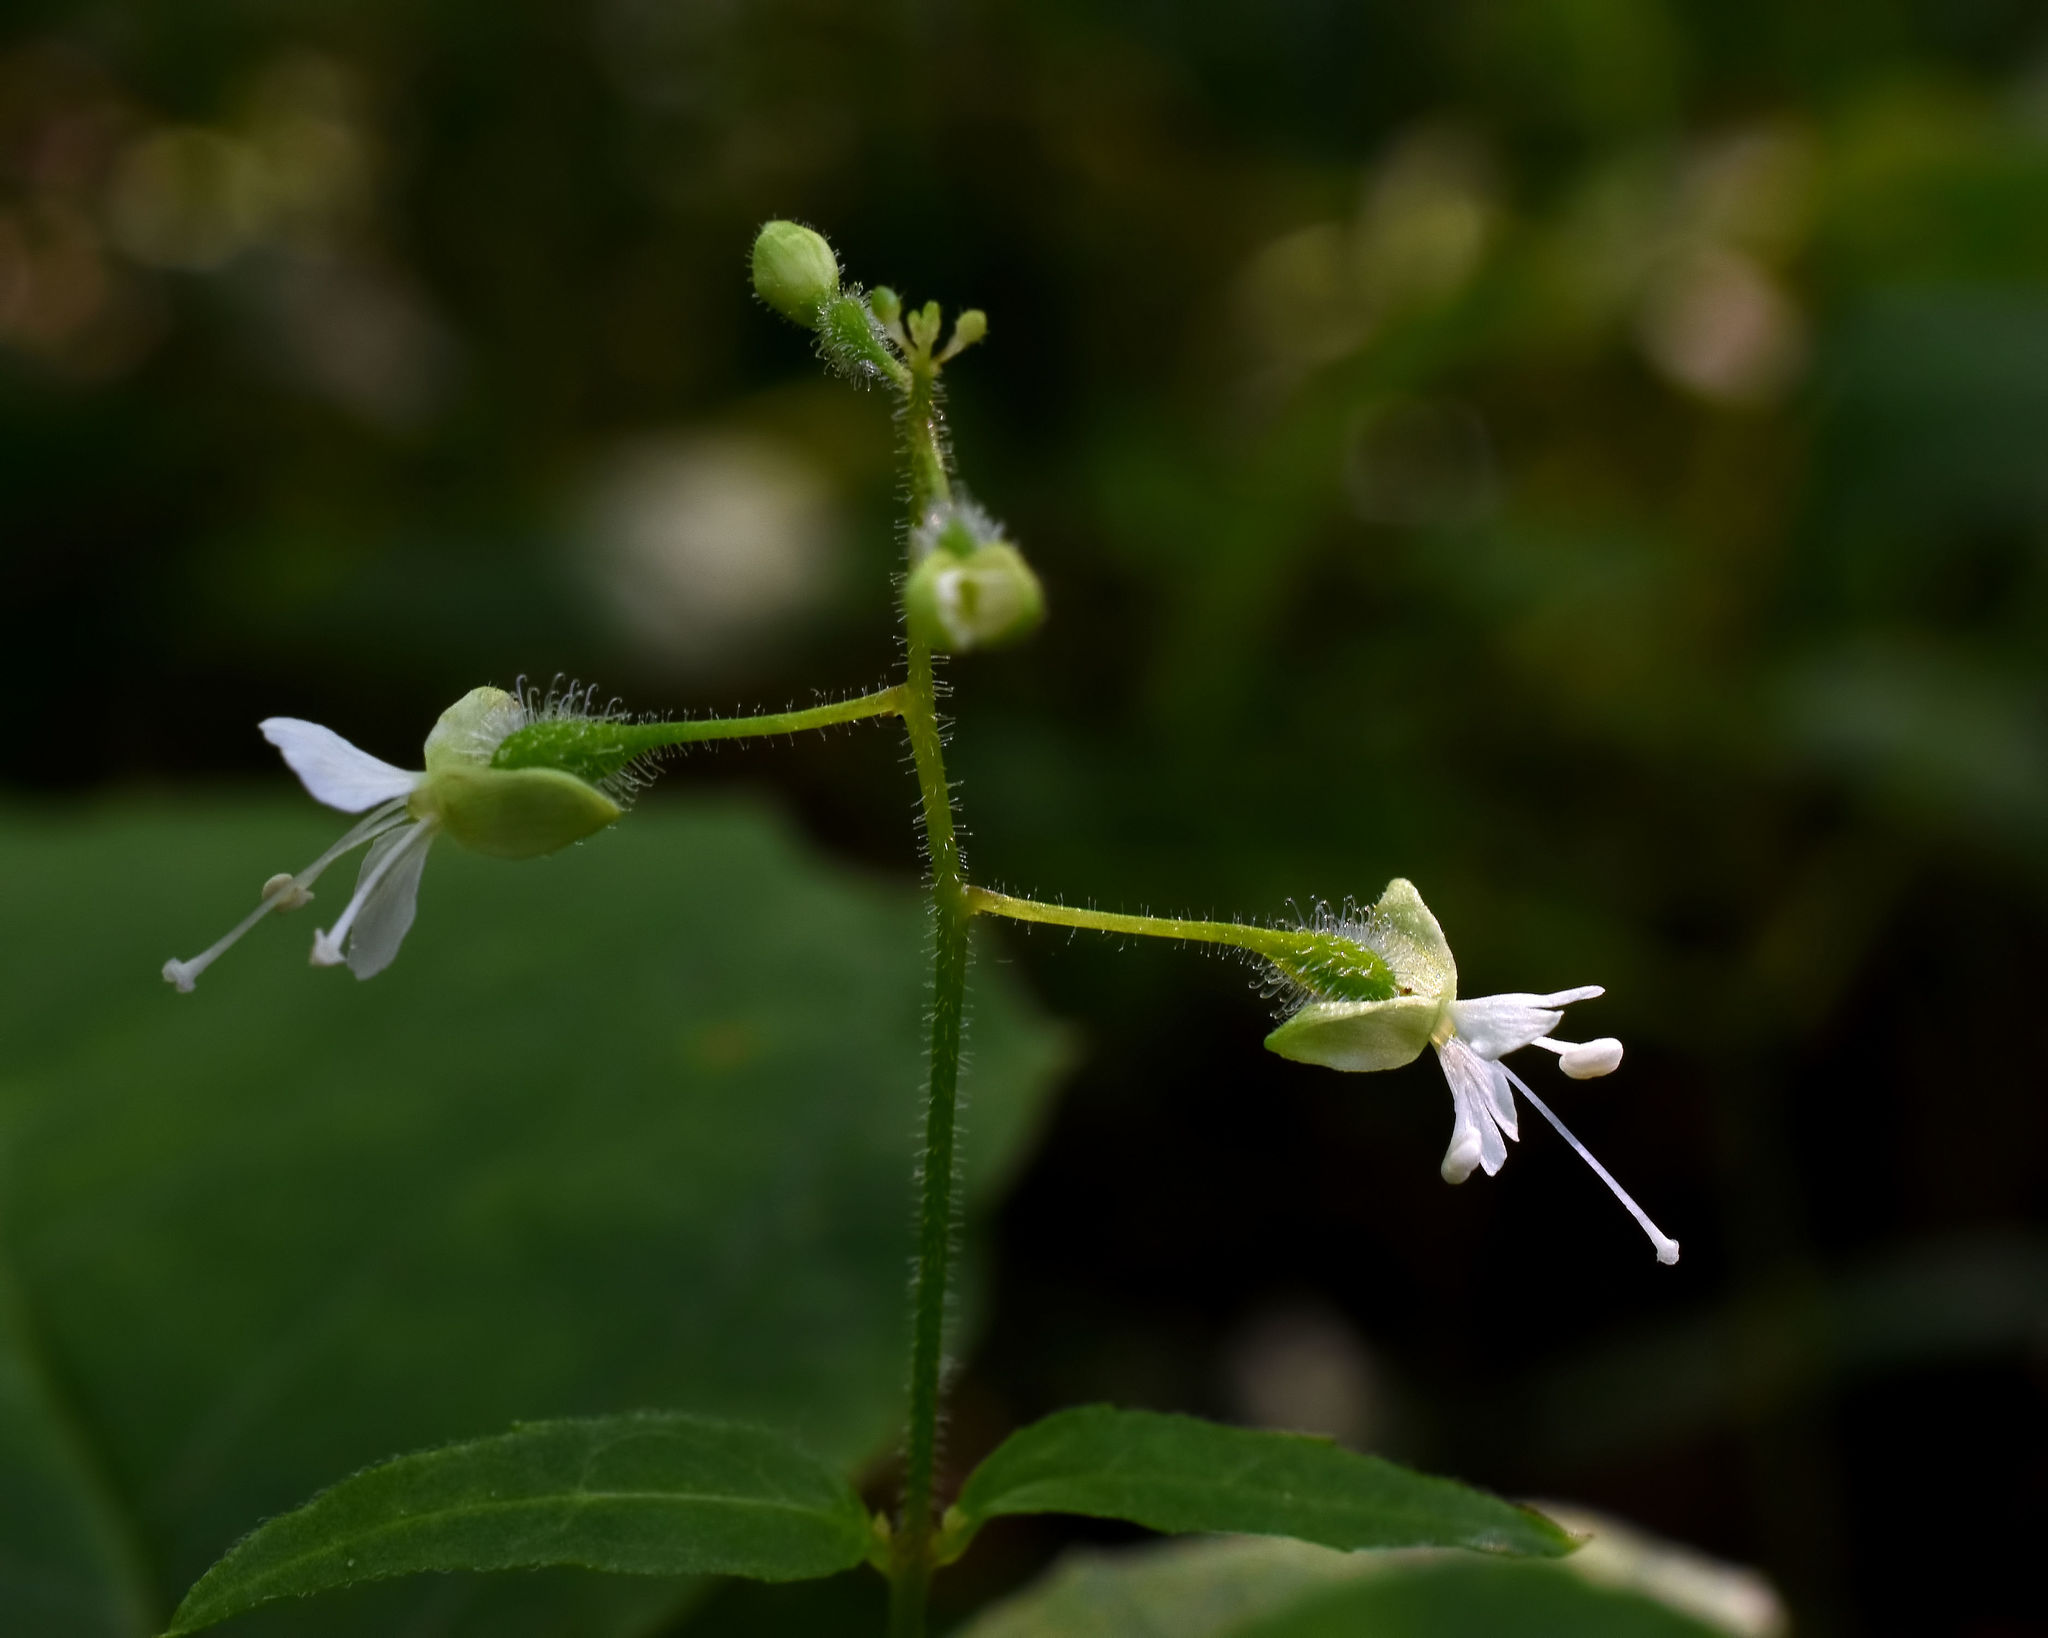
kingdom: Plantae
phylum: Tracheophyta
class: Magnoliopsida
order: Myrtales
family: Onagraceae
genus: Circaea
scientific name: Circaea canadensis
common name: Broad-leaved enchanter's nightshade
